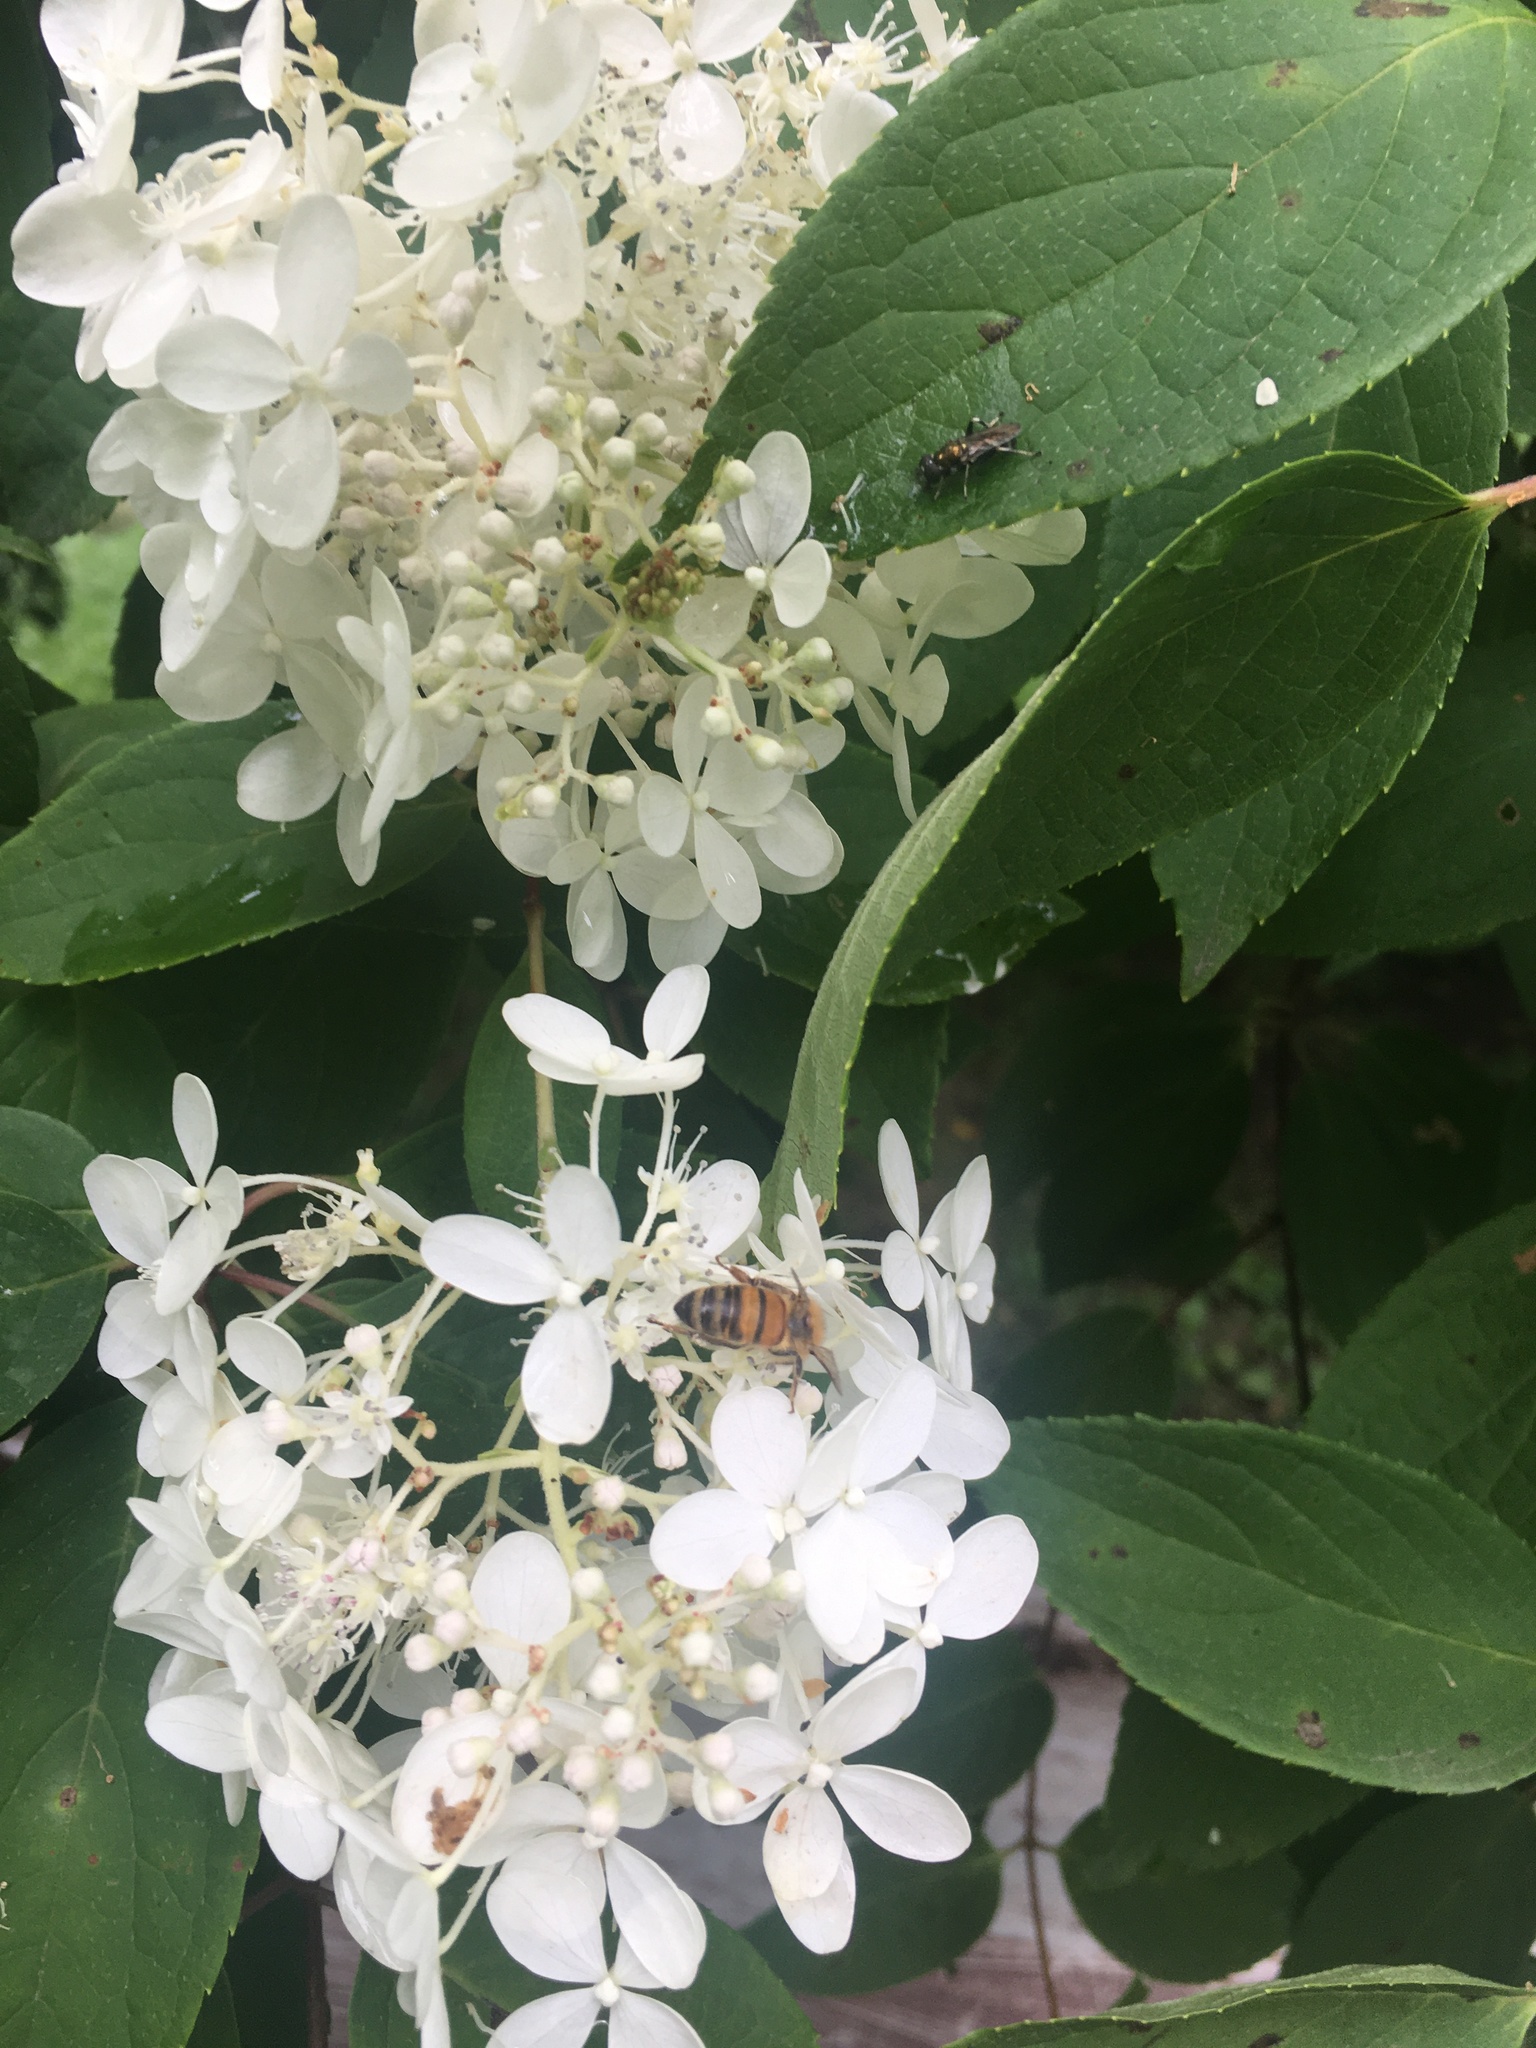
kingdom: Animalia
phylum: Arthropoda
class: Insecta
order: Hymenoptera
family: Apidae
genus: Apis
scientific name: Apis mellifera
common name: Honey bee
